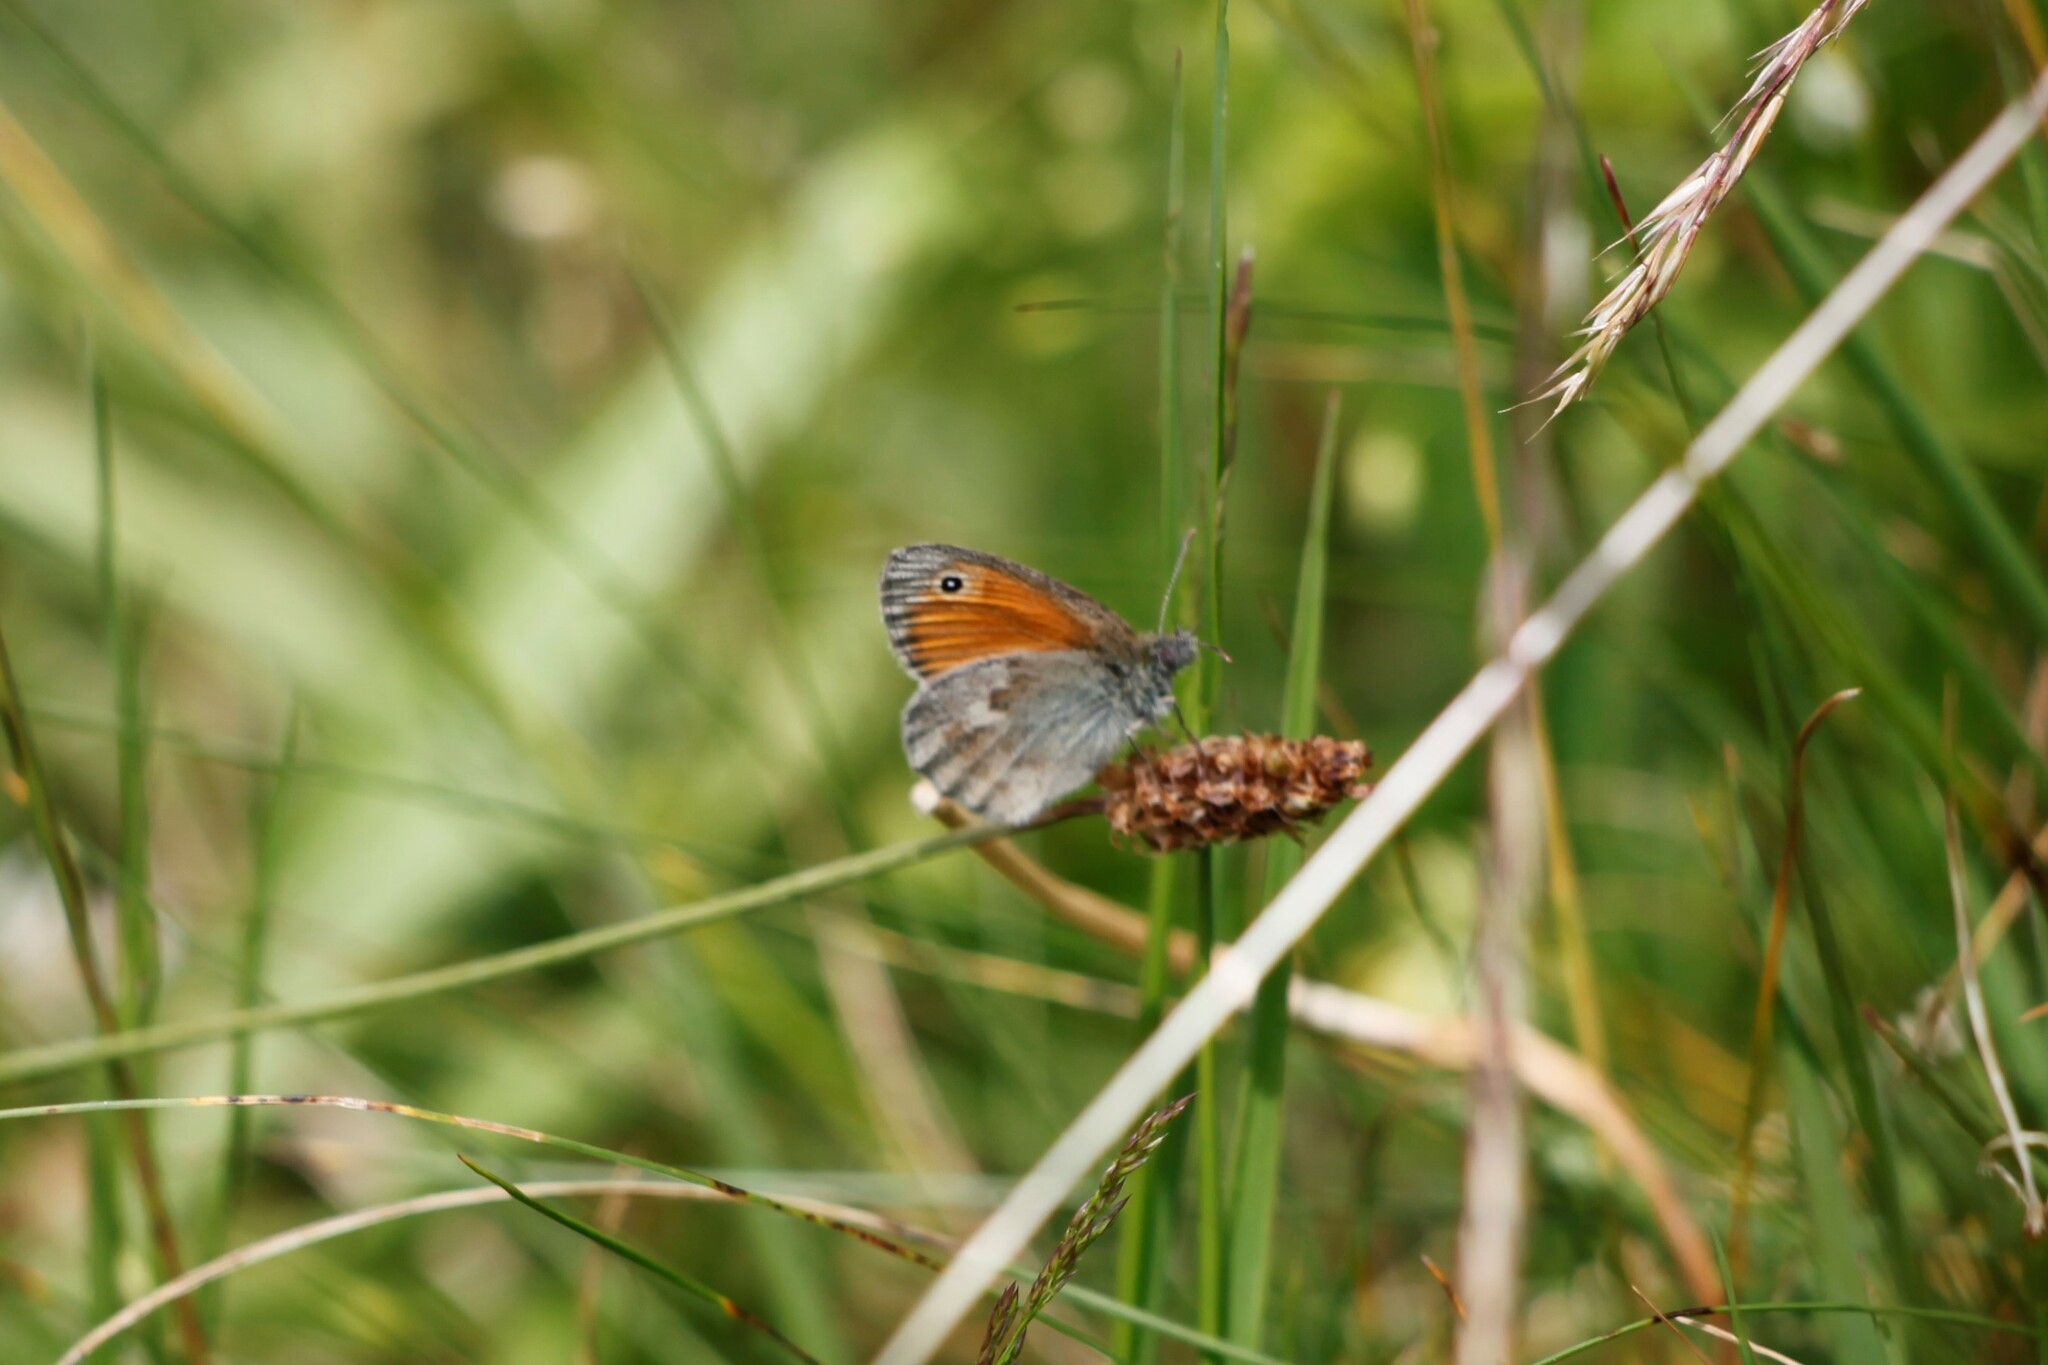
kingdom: Animalia
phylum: Arthropoda
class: Insecta
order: Lepidoptera
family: Nymphalidae
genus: Coenonympha
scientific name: Coenonympha pamphilus
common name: Small heath
